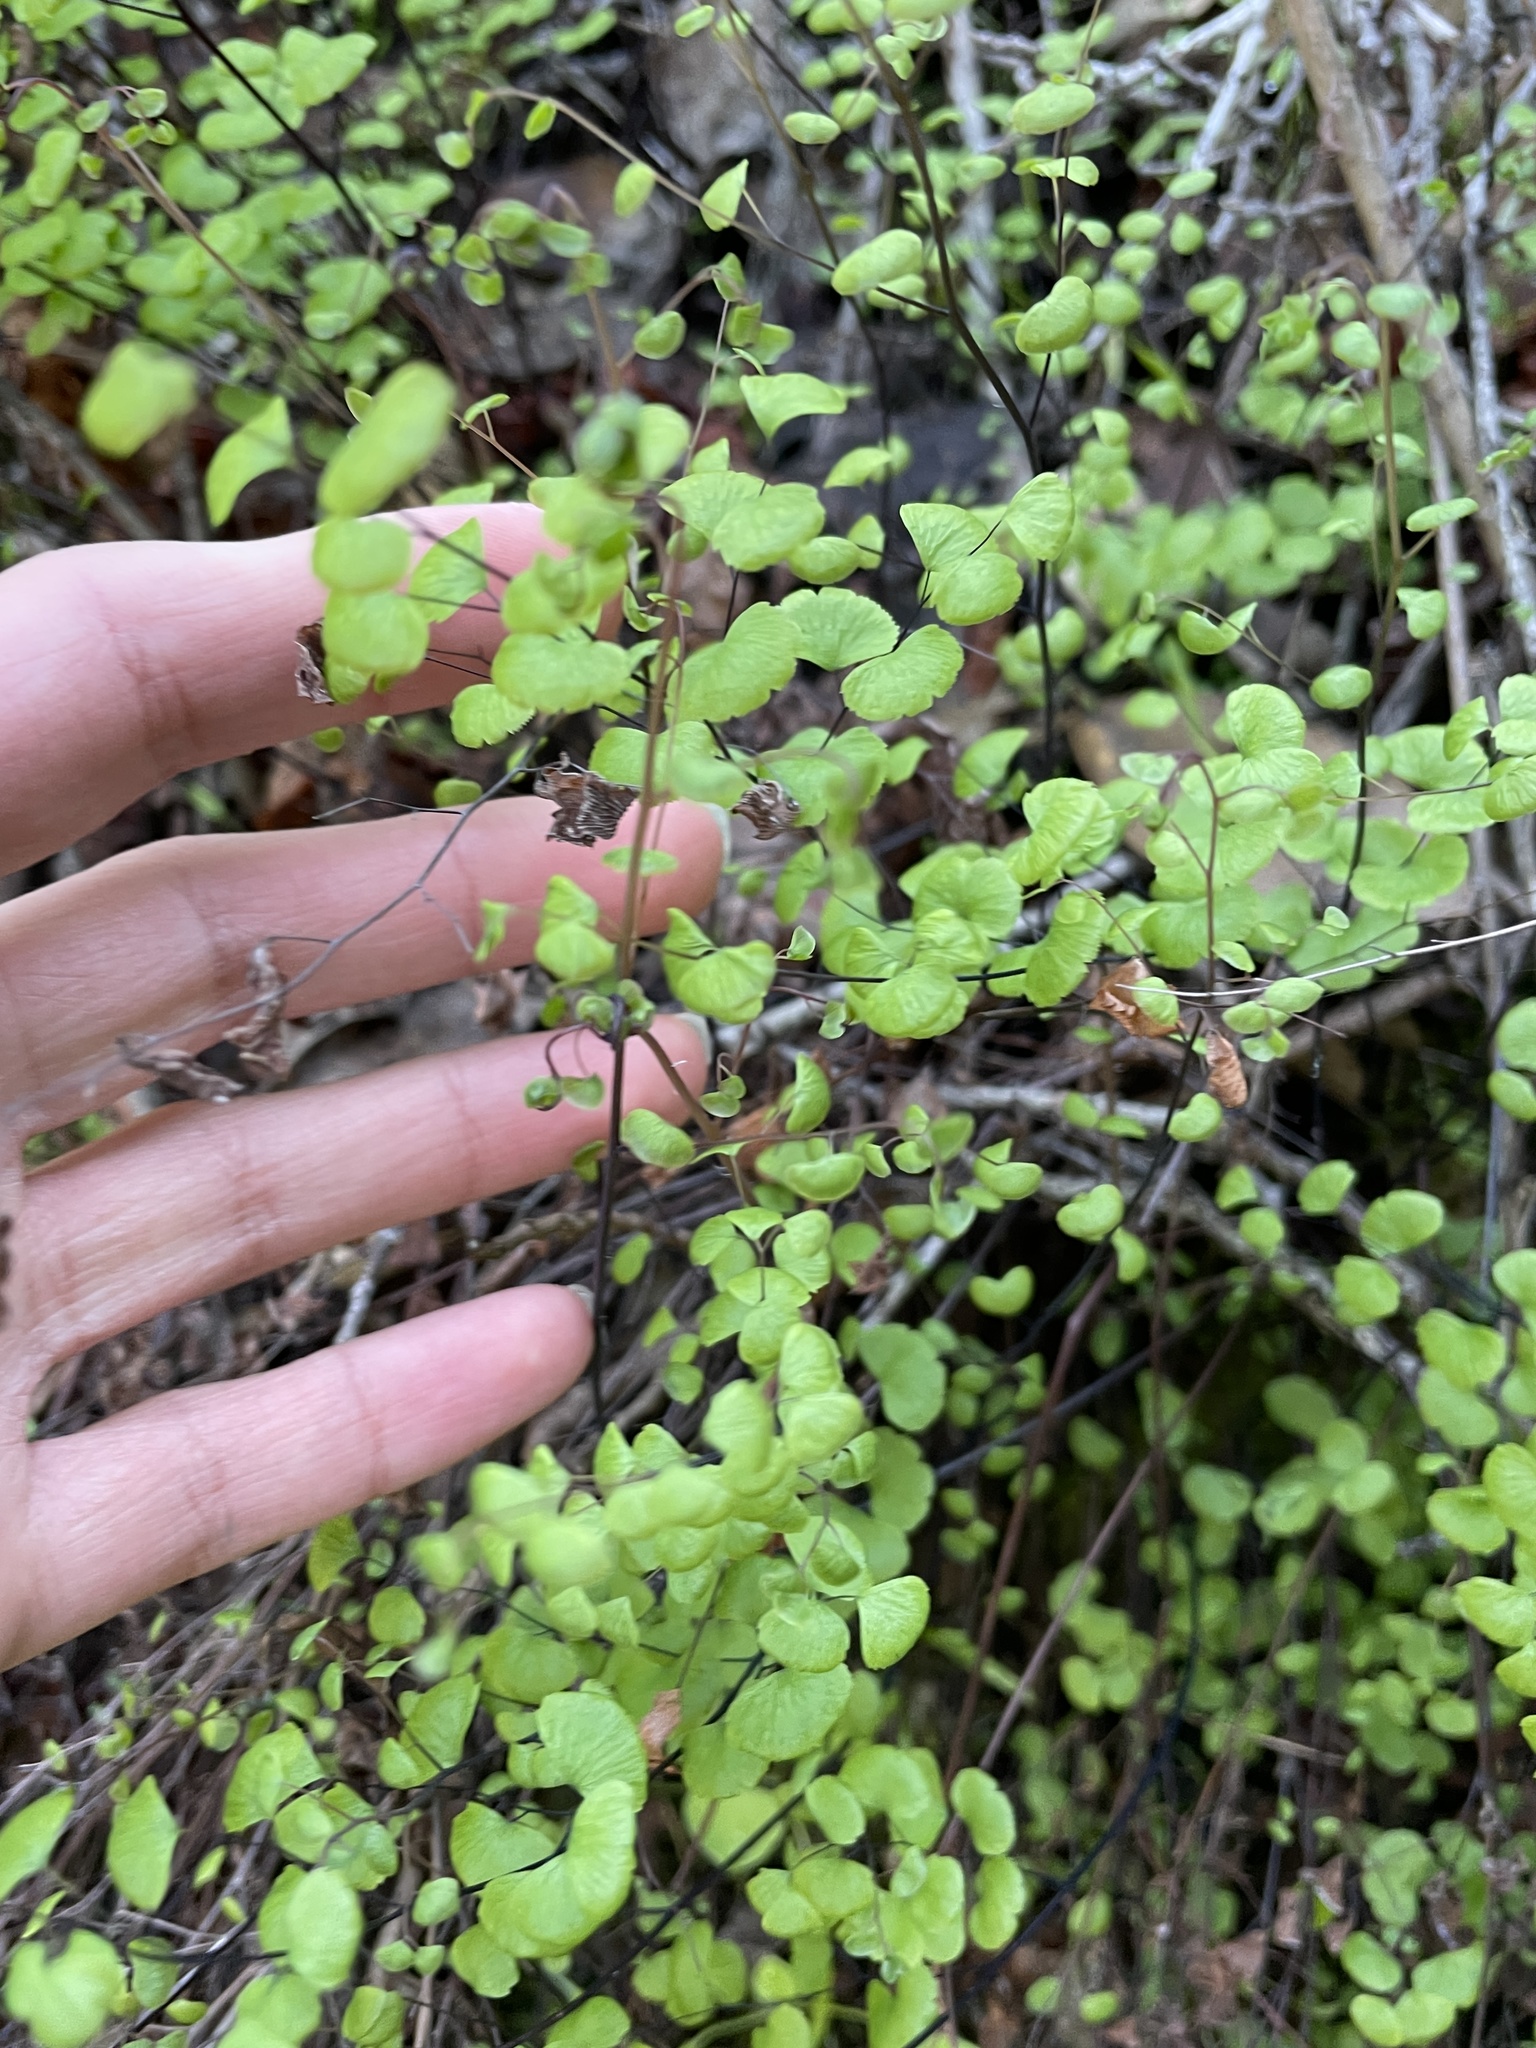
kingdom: Plantae
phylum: Tracheophyta
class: Polypodiopsida
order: Polypodiales
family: Pteridaceae
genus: Adiantum
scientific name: Adiantum jordanii
